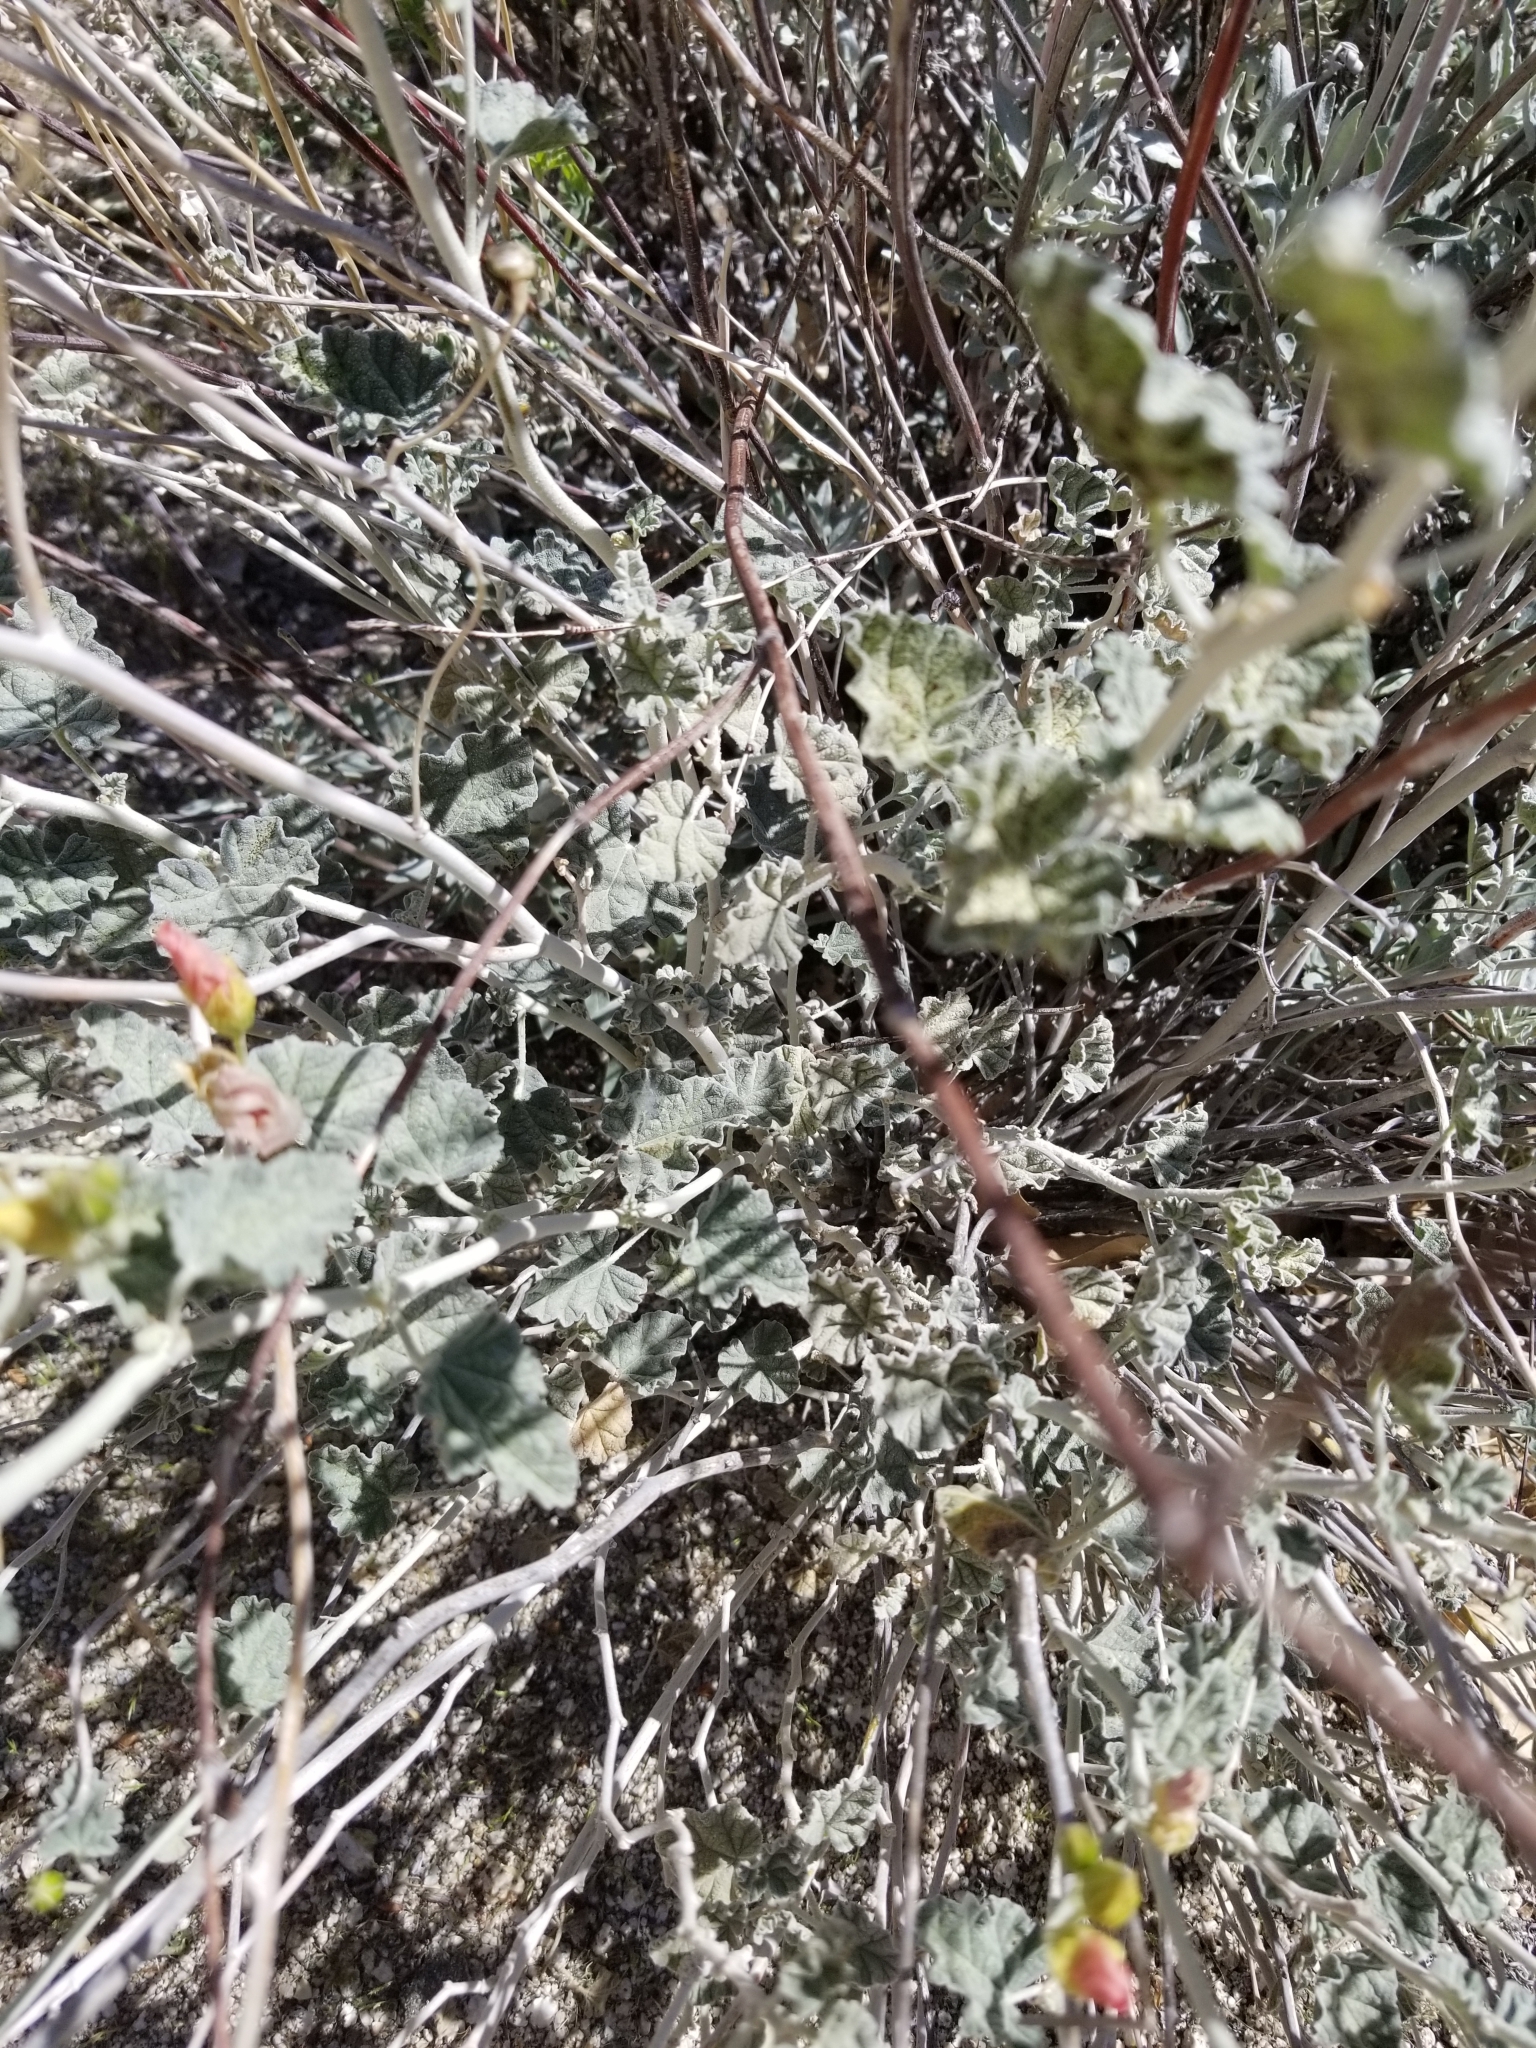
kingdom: Plantae
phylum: Tracheophyta
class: Magnoliopsida
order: Malvales
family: Malvaceae
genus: Sphaeralcea
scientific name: Sphaeralcea ambigua
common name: Apricot globe-mallow
